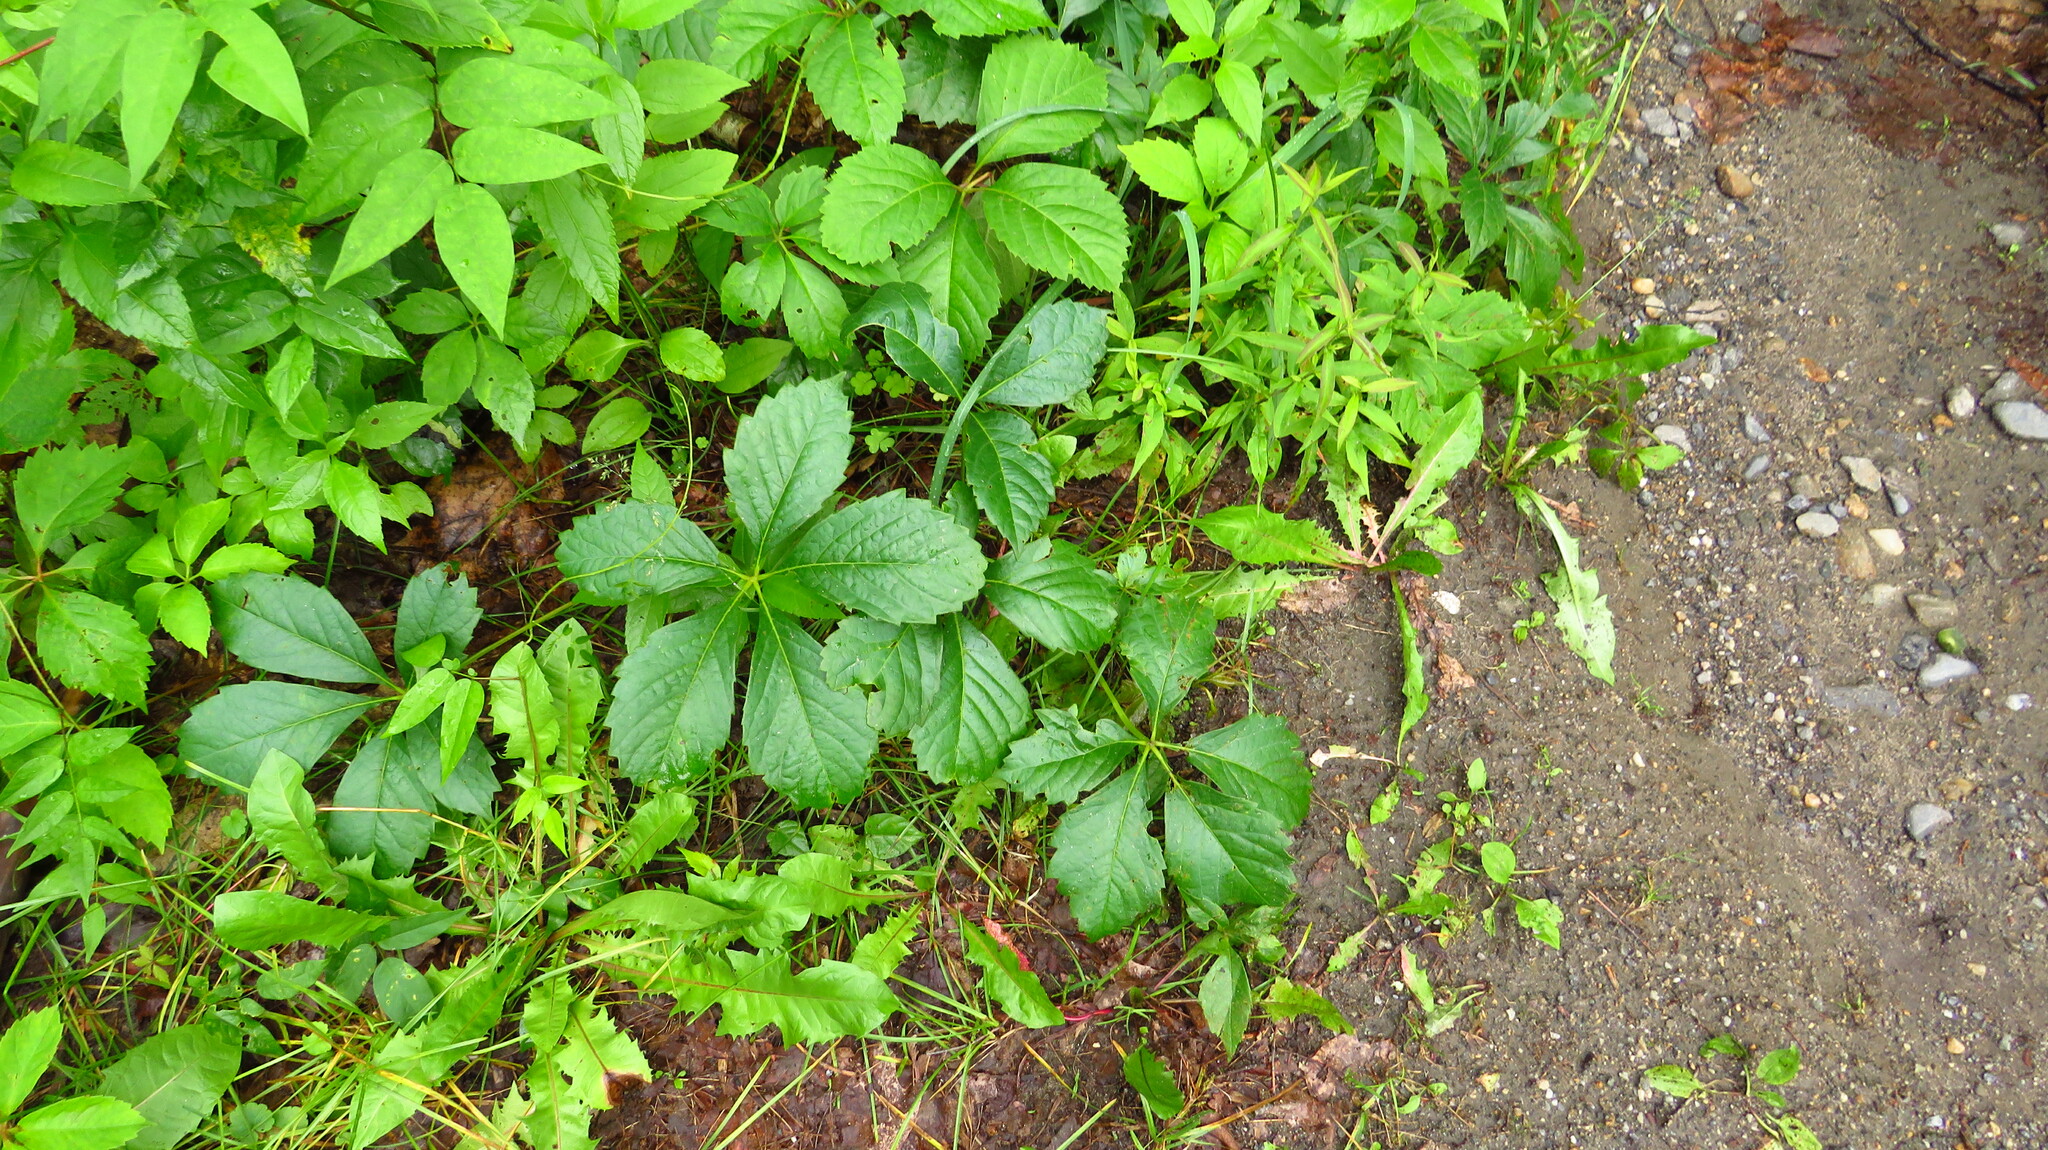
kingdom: Plantae
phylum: Tracheophyta
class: Magnoliopsida
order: Vitales
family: Vitaceae
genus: Parthenocissus
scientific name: Parthenocissus inserta
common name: False virginia-creeper
